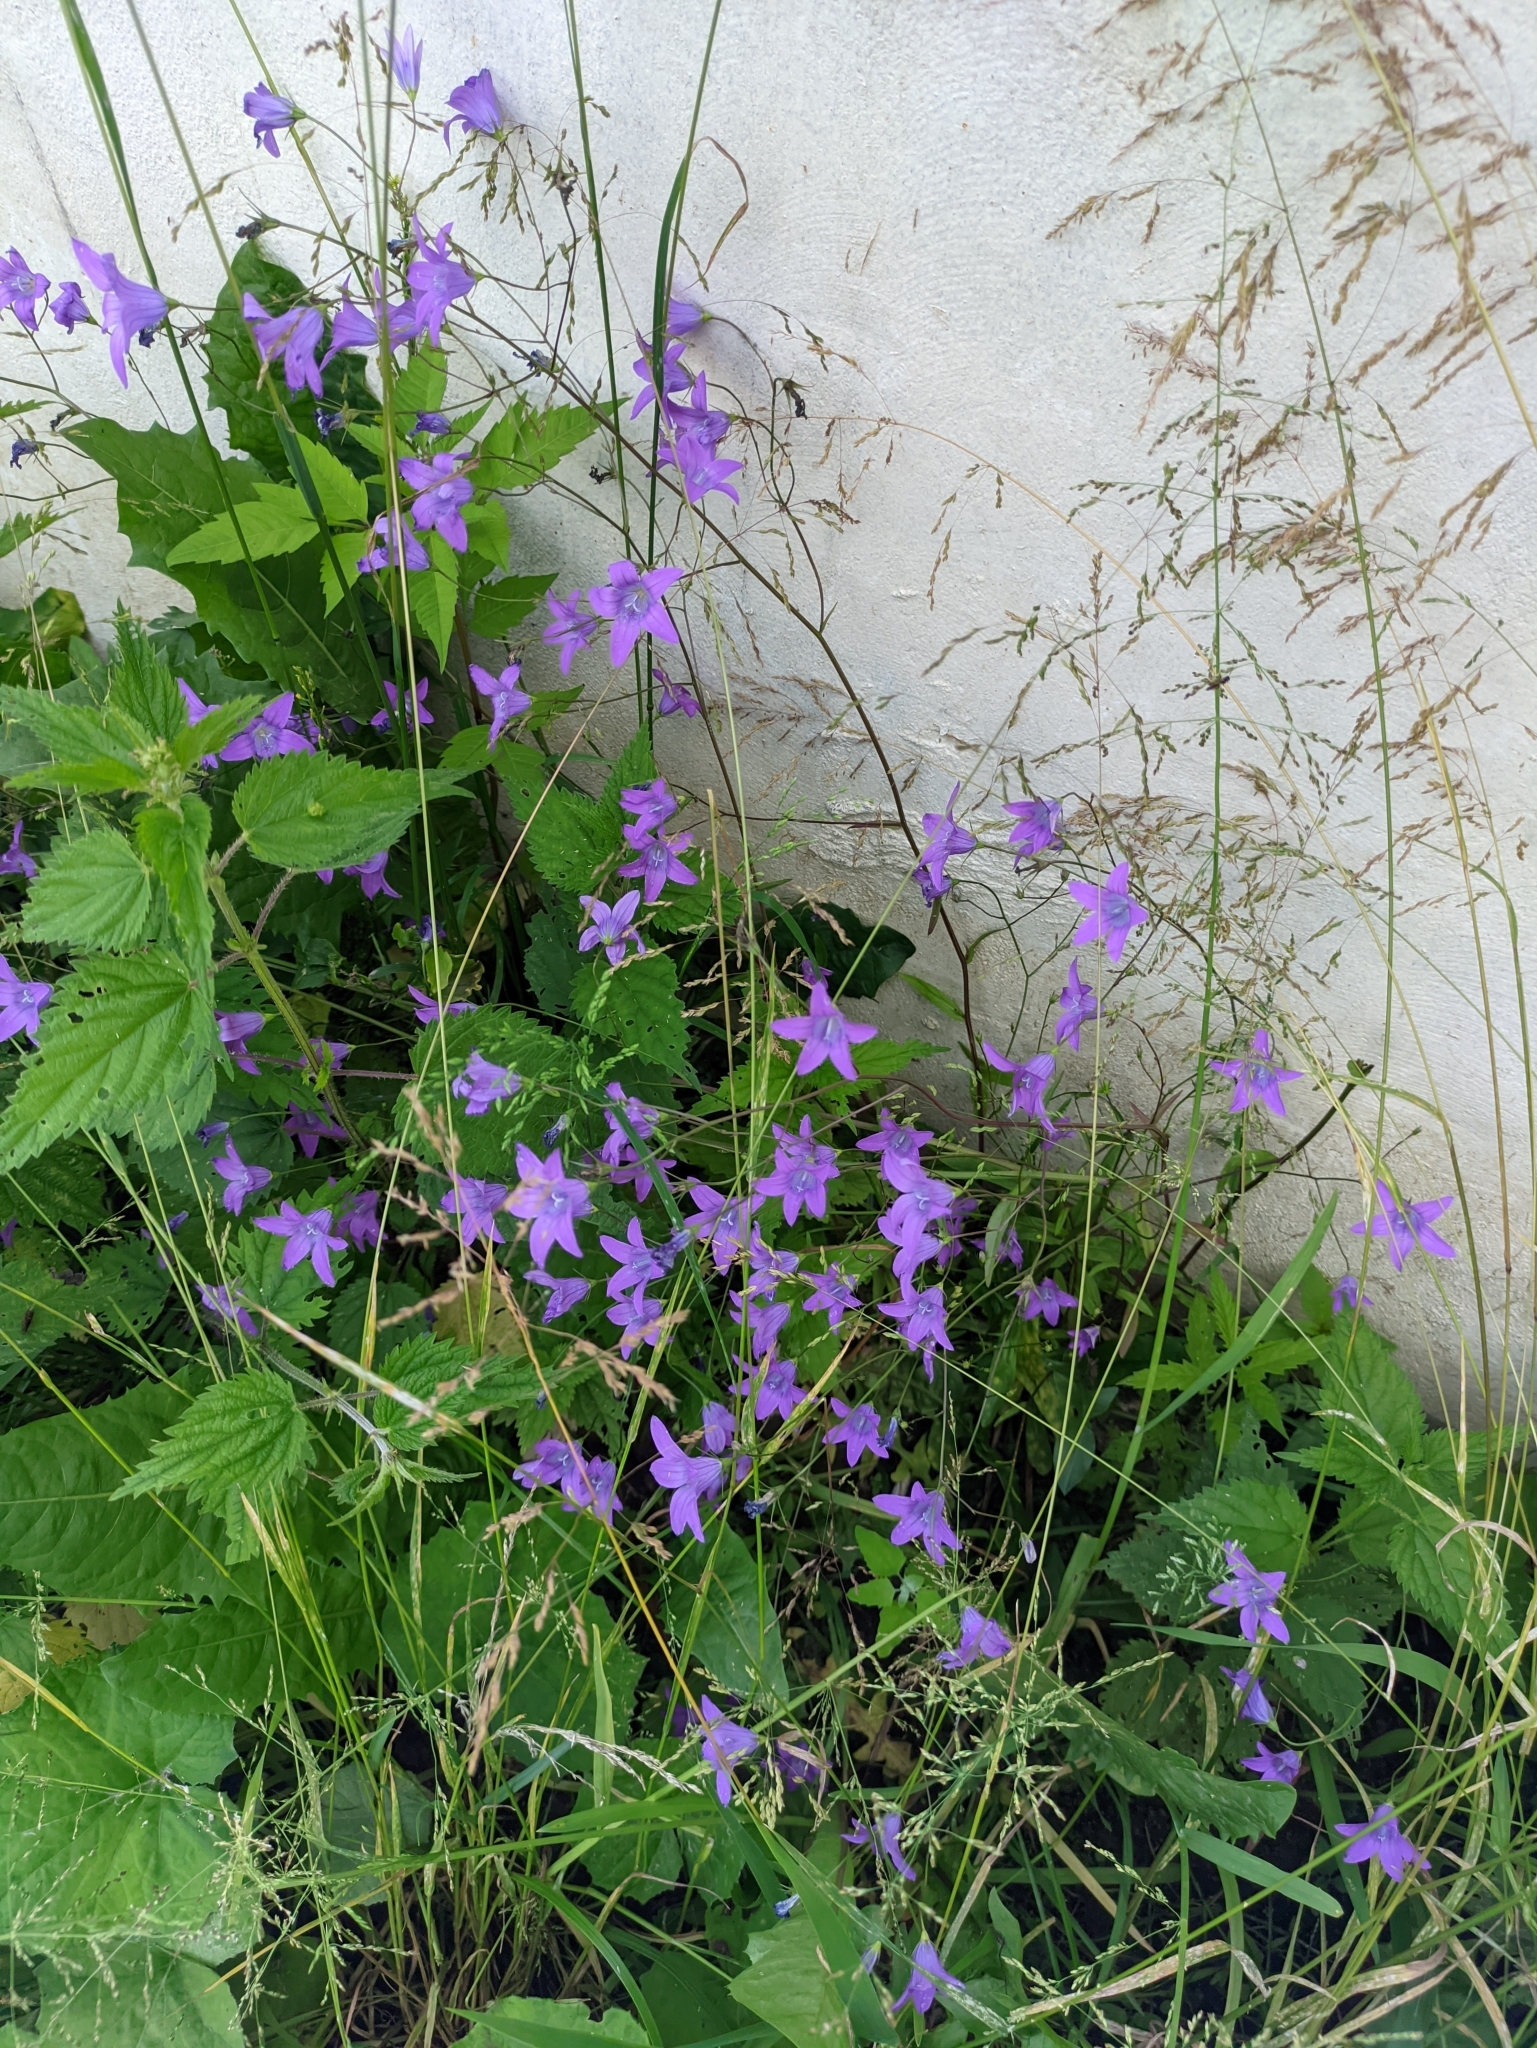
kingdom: Plantae
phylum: Tracheophyta
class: Magnoliopsida
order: Asterales
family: Campanulaceae
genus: Campanula
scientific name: Campanula patula
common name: Spreading bellflower
